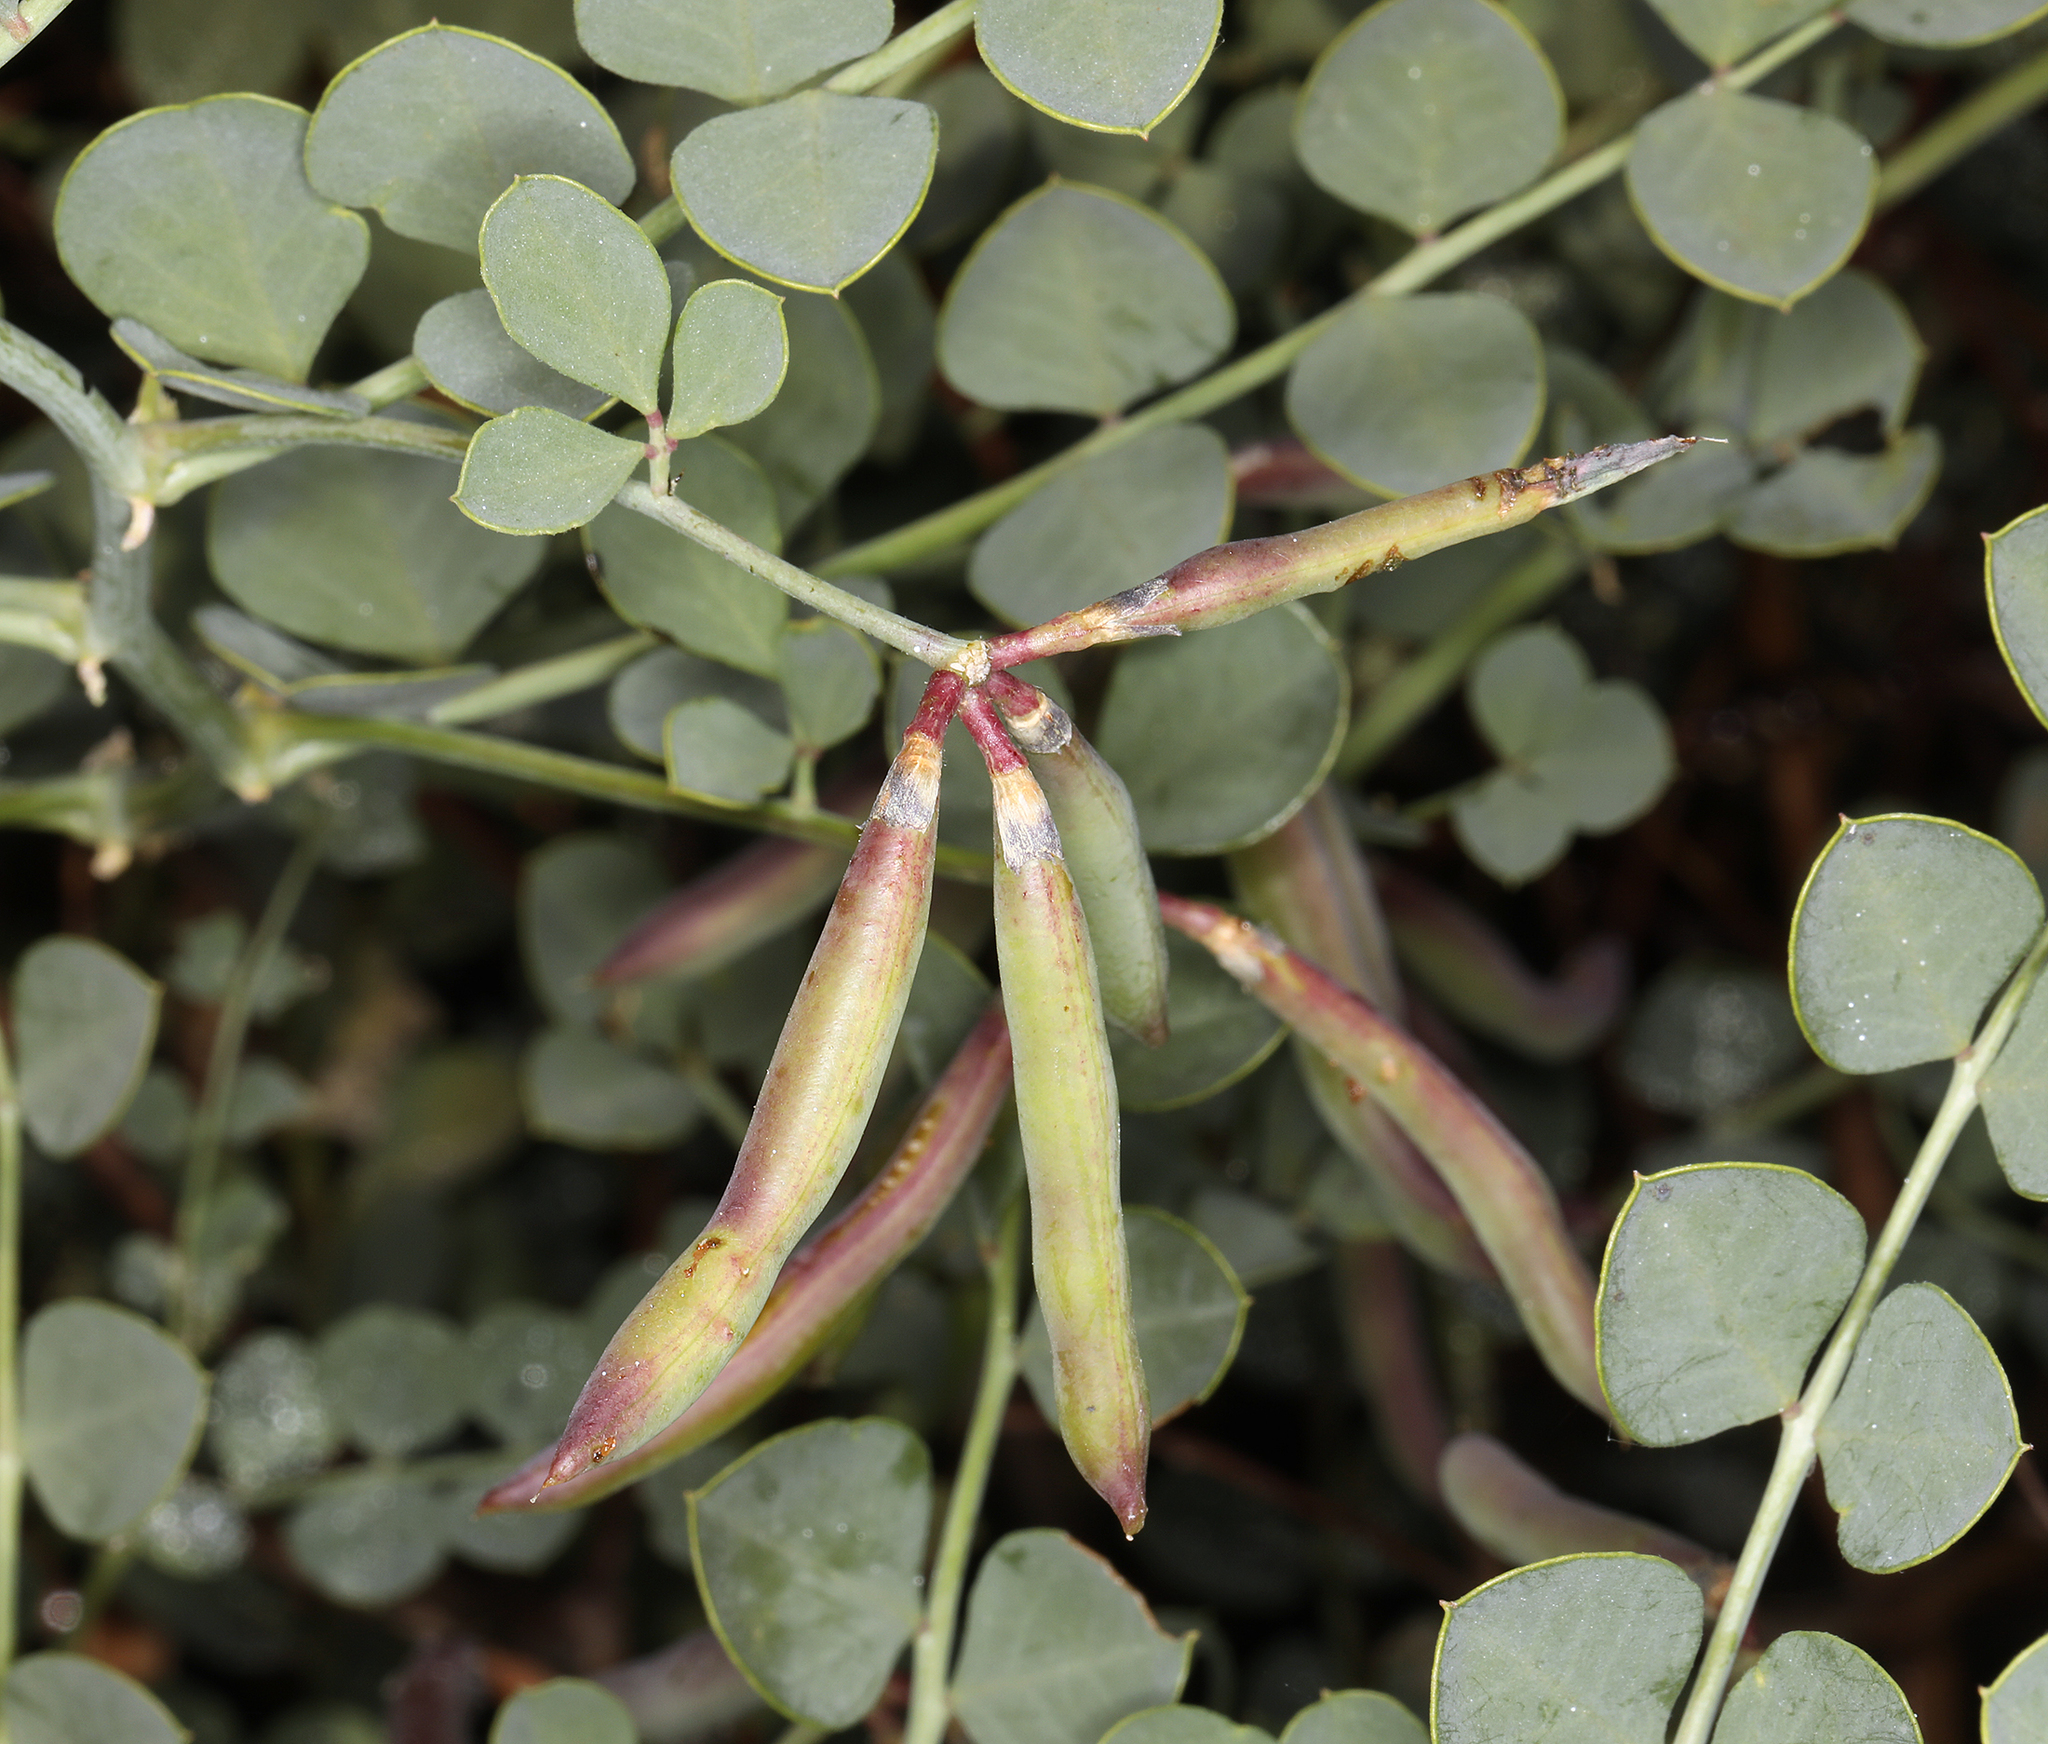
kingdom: Plantae
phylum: Tracheophyta
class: Magnoliopsida
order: Fabales
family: Fabaceae
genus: Hosackia
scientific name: Hosackia crassifolia
